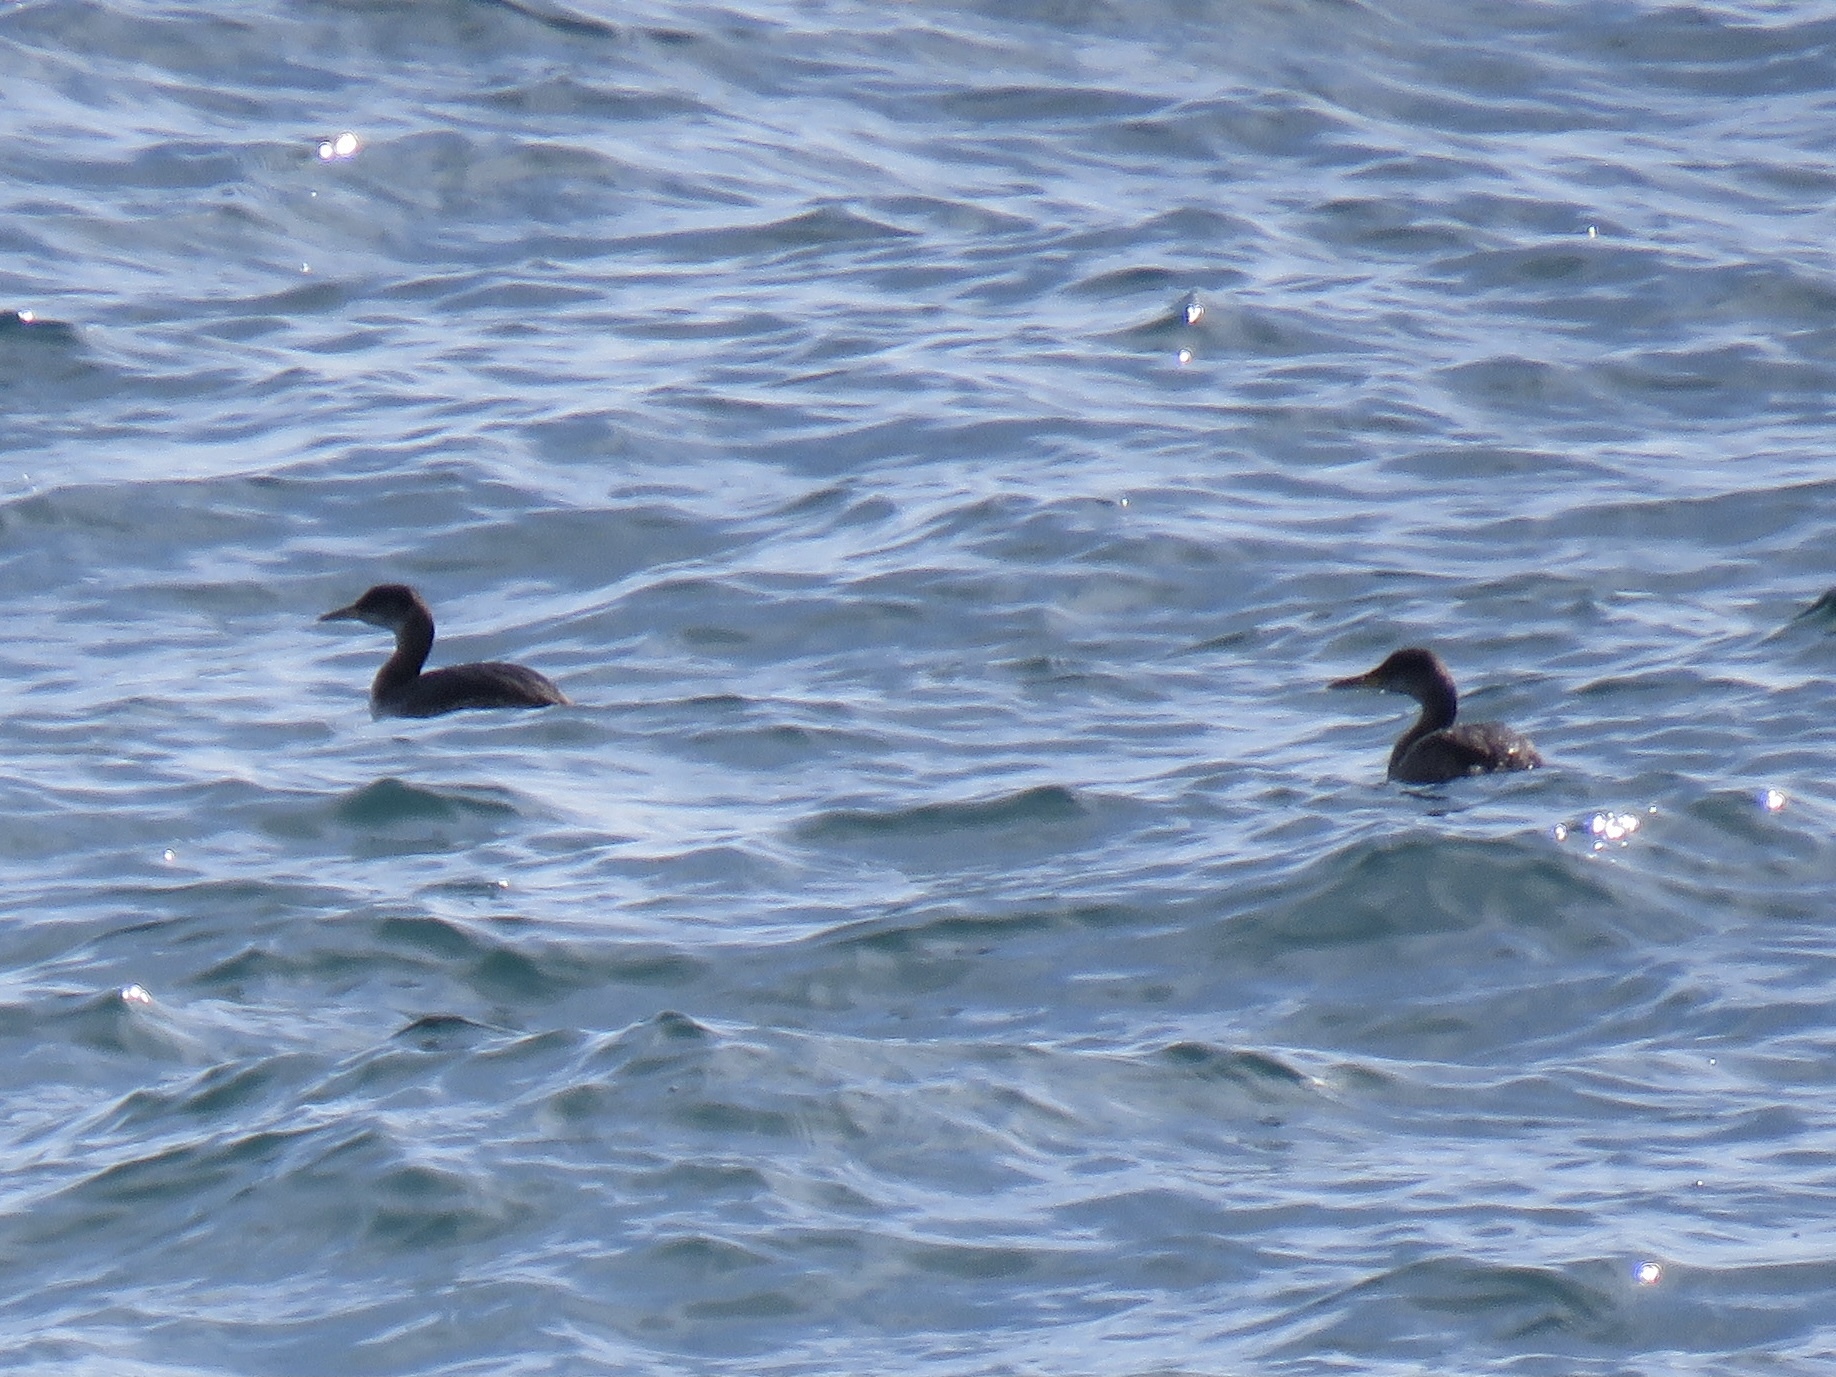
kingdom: Animalia
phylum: Chordata
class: Aves
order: Podicipediformes
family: Podicipedidae
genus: Podiceps
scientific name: Podiceps grisegena
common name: Red-necked grebe
